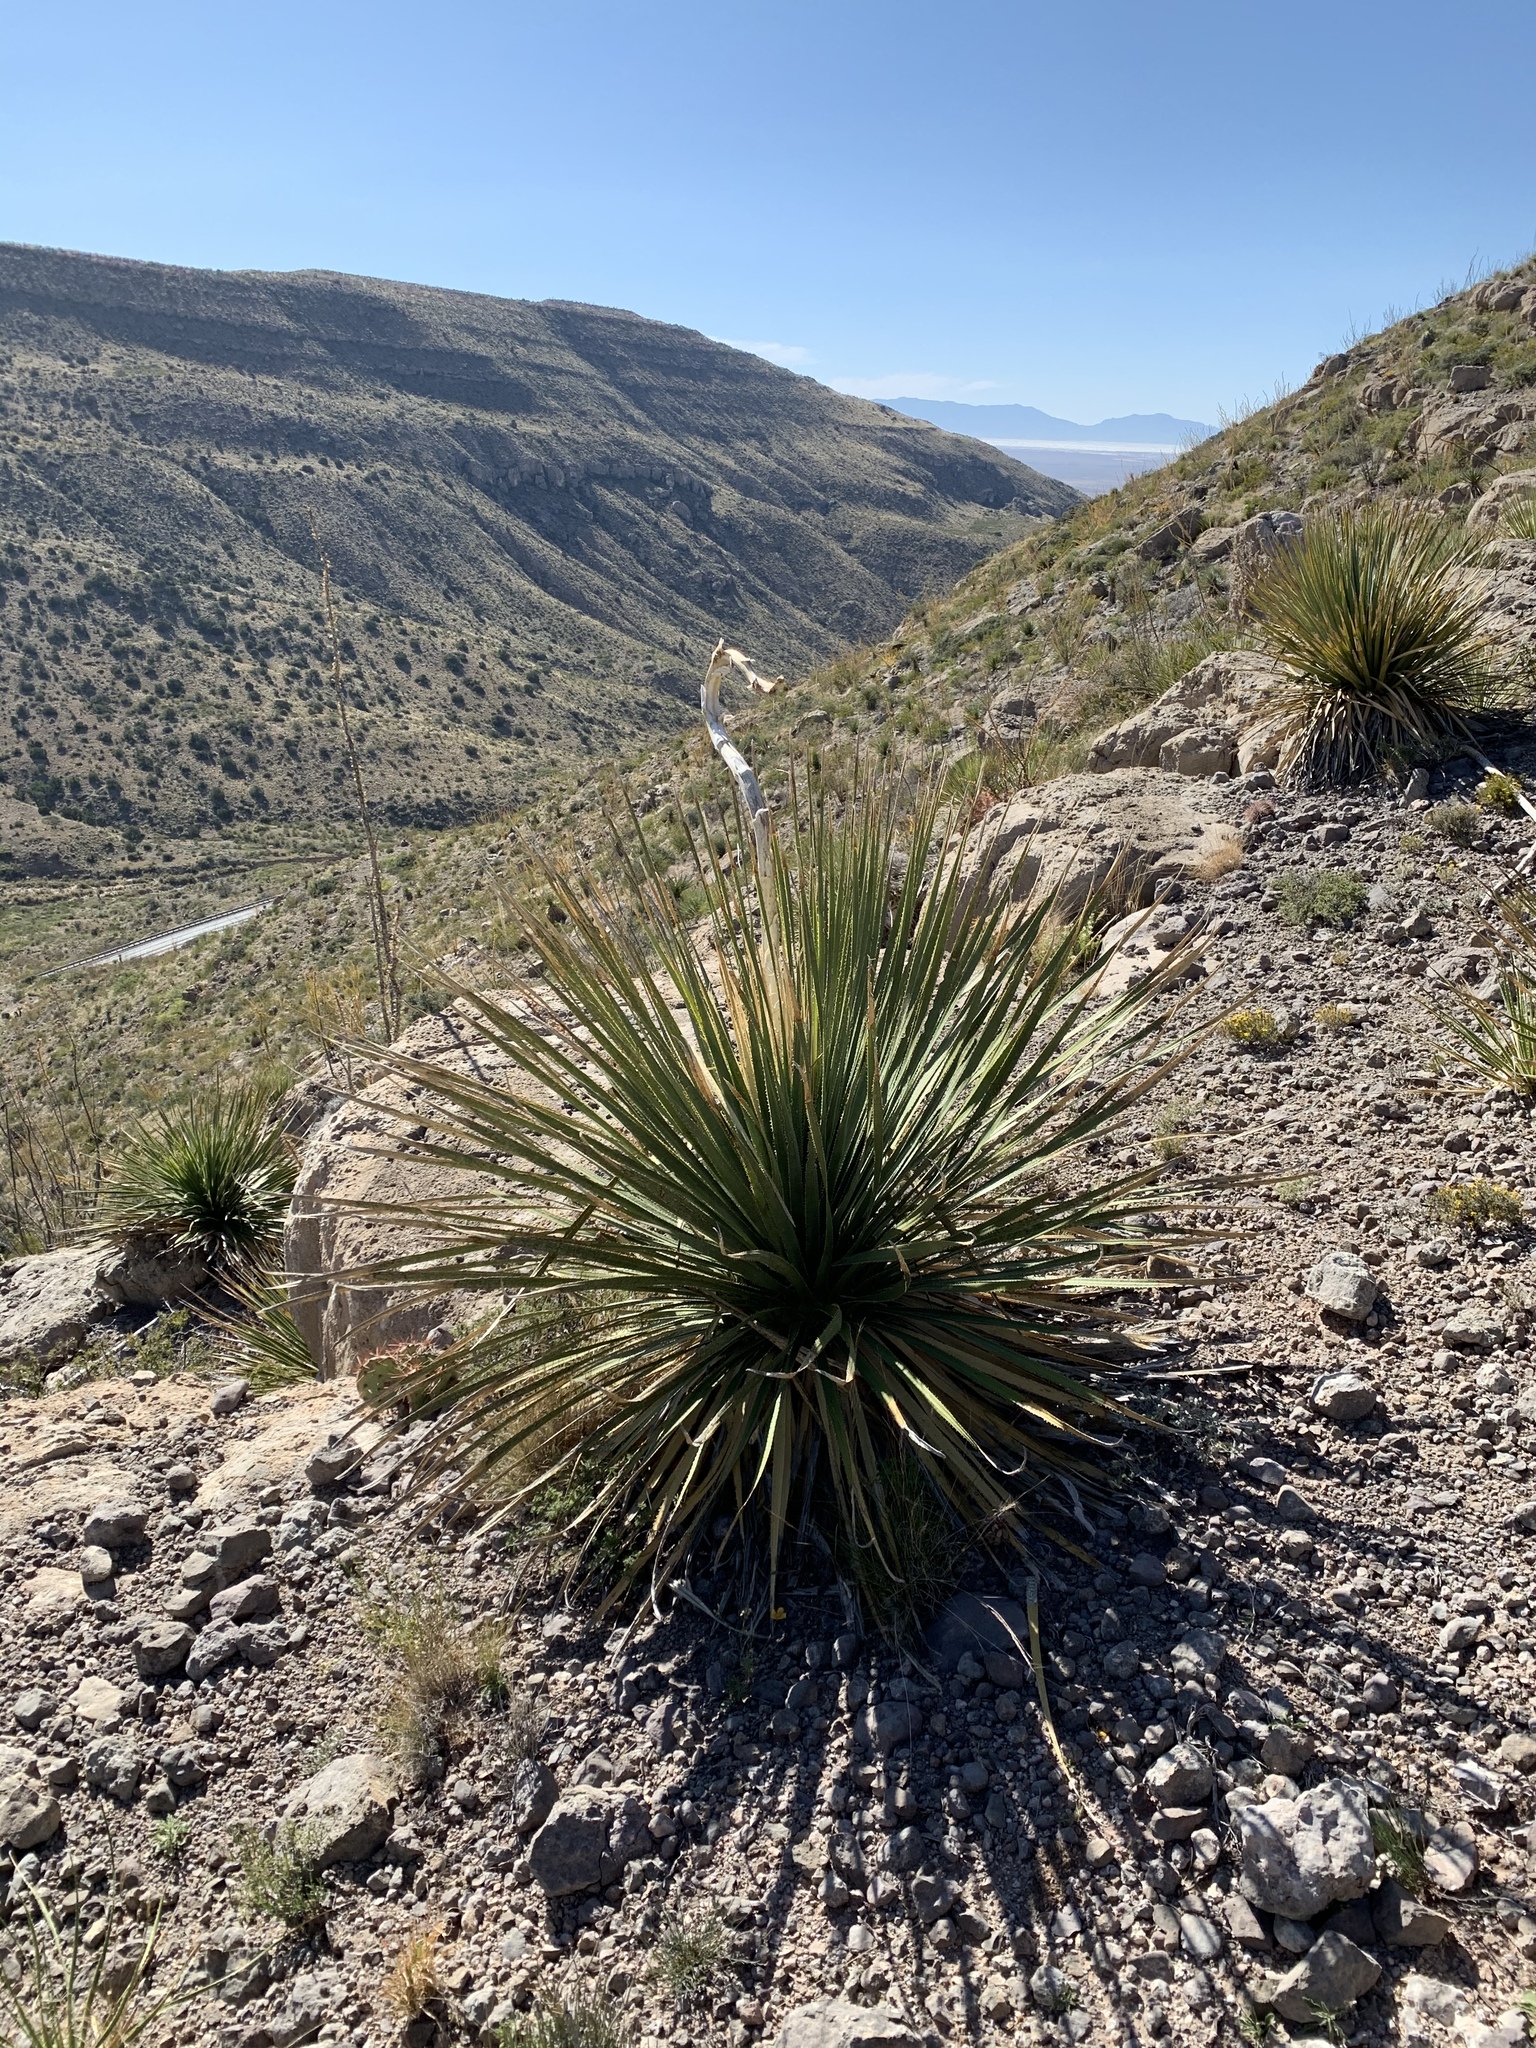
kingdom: Plantae
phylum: Tracheophyta
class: Liliopsida
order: Asparagales
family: Asparagaceae
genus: Dasylirion
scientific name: Dasylirion wheeleri
